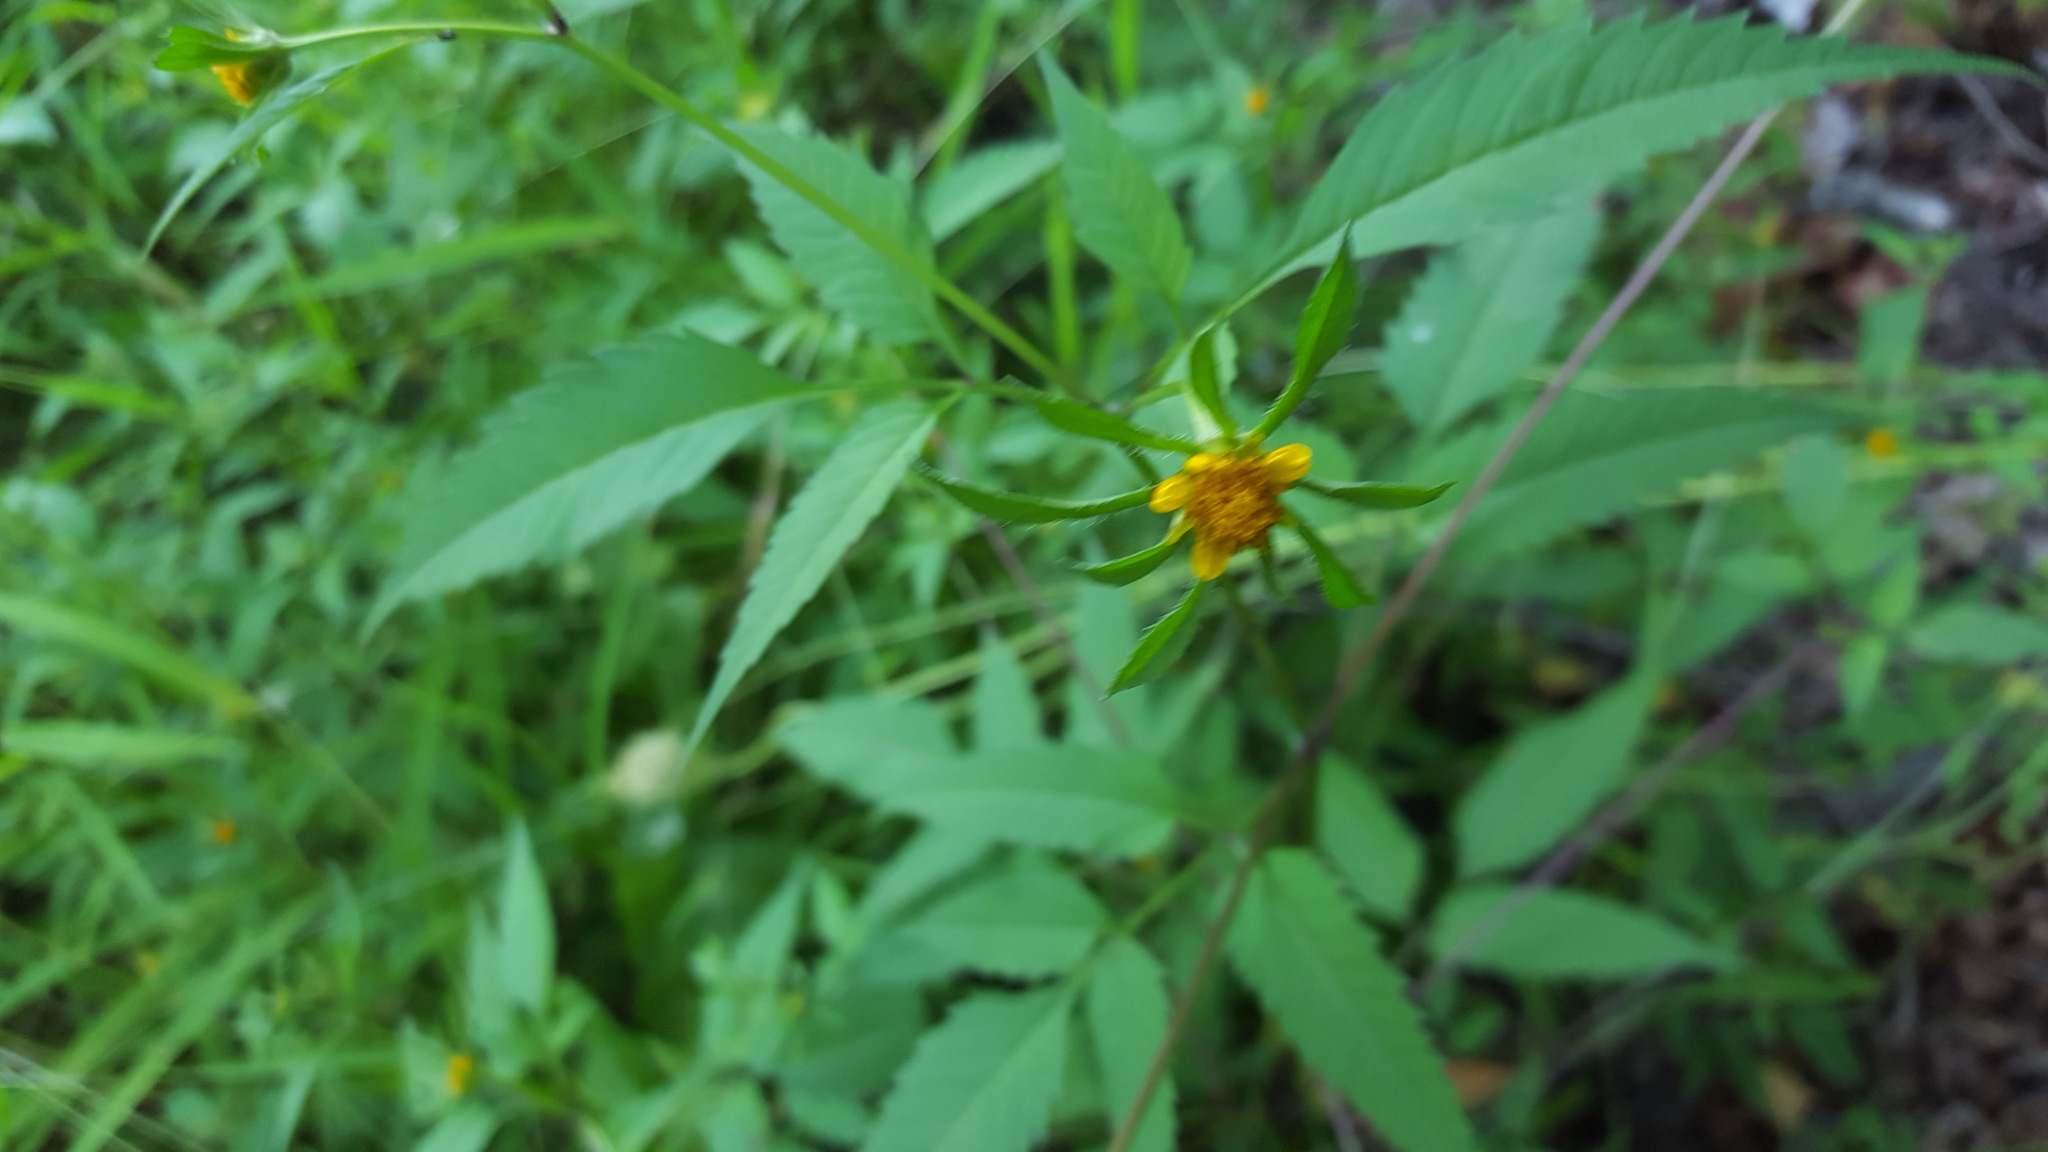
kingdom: Plantae
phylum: Tracheophyta
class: Magnoliopsida
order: Asterales
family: Asteraceae
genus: Bidens
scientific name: Bidens frondosa
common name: Beggarticks
